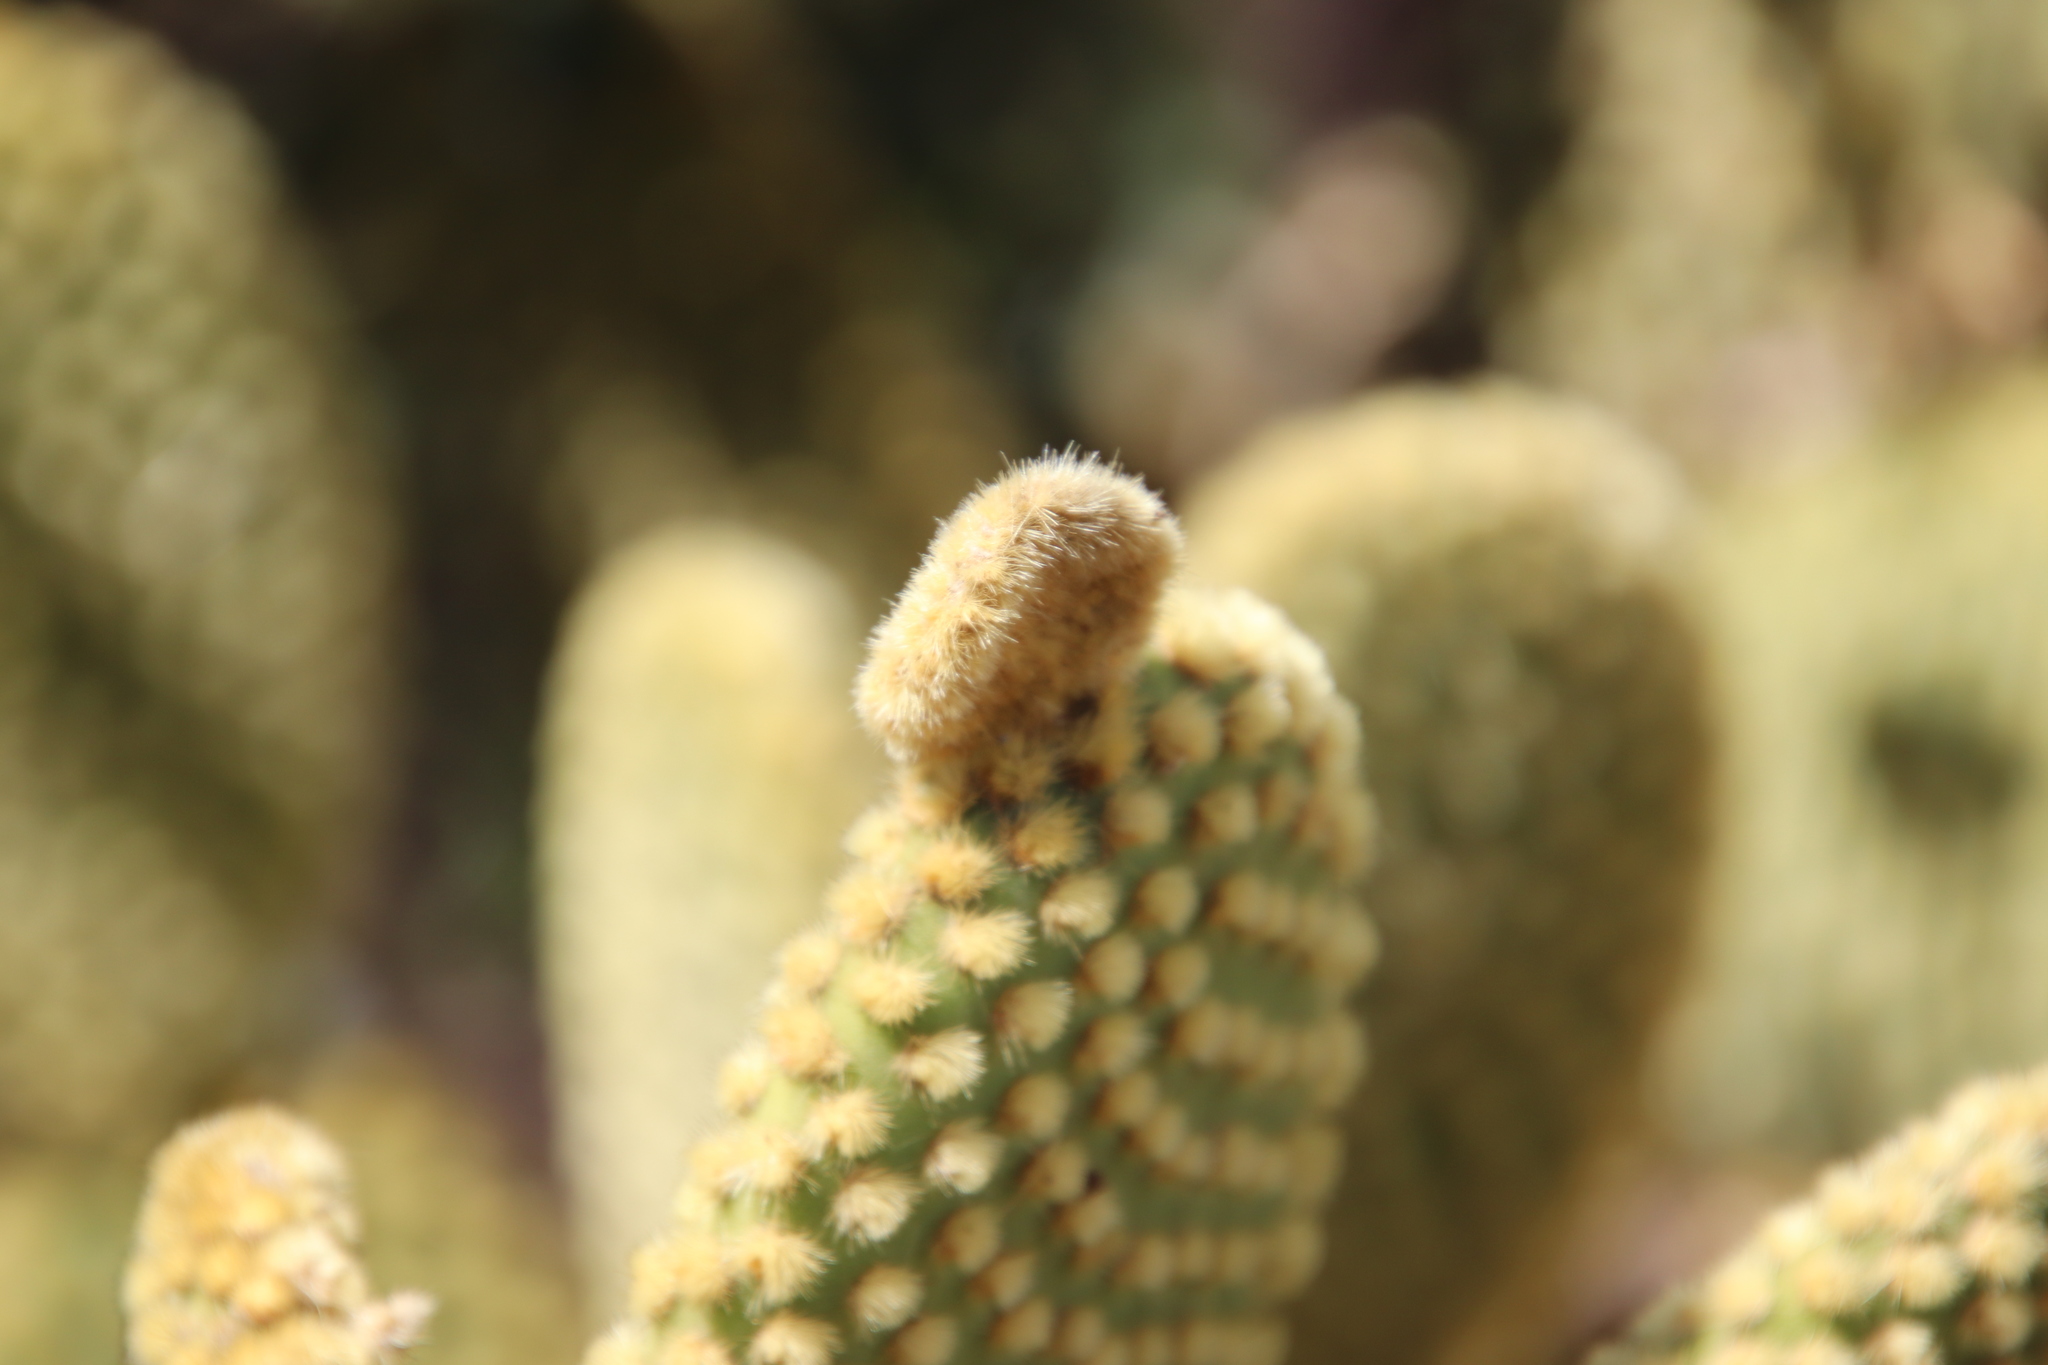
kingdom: Plantae
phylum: Tracheophyta
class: Magnoliopsida
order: Caryophyllales
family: Cactaceae
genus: Opuntia
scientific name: Opuntia microdasys
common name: Angel's-wings
